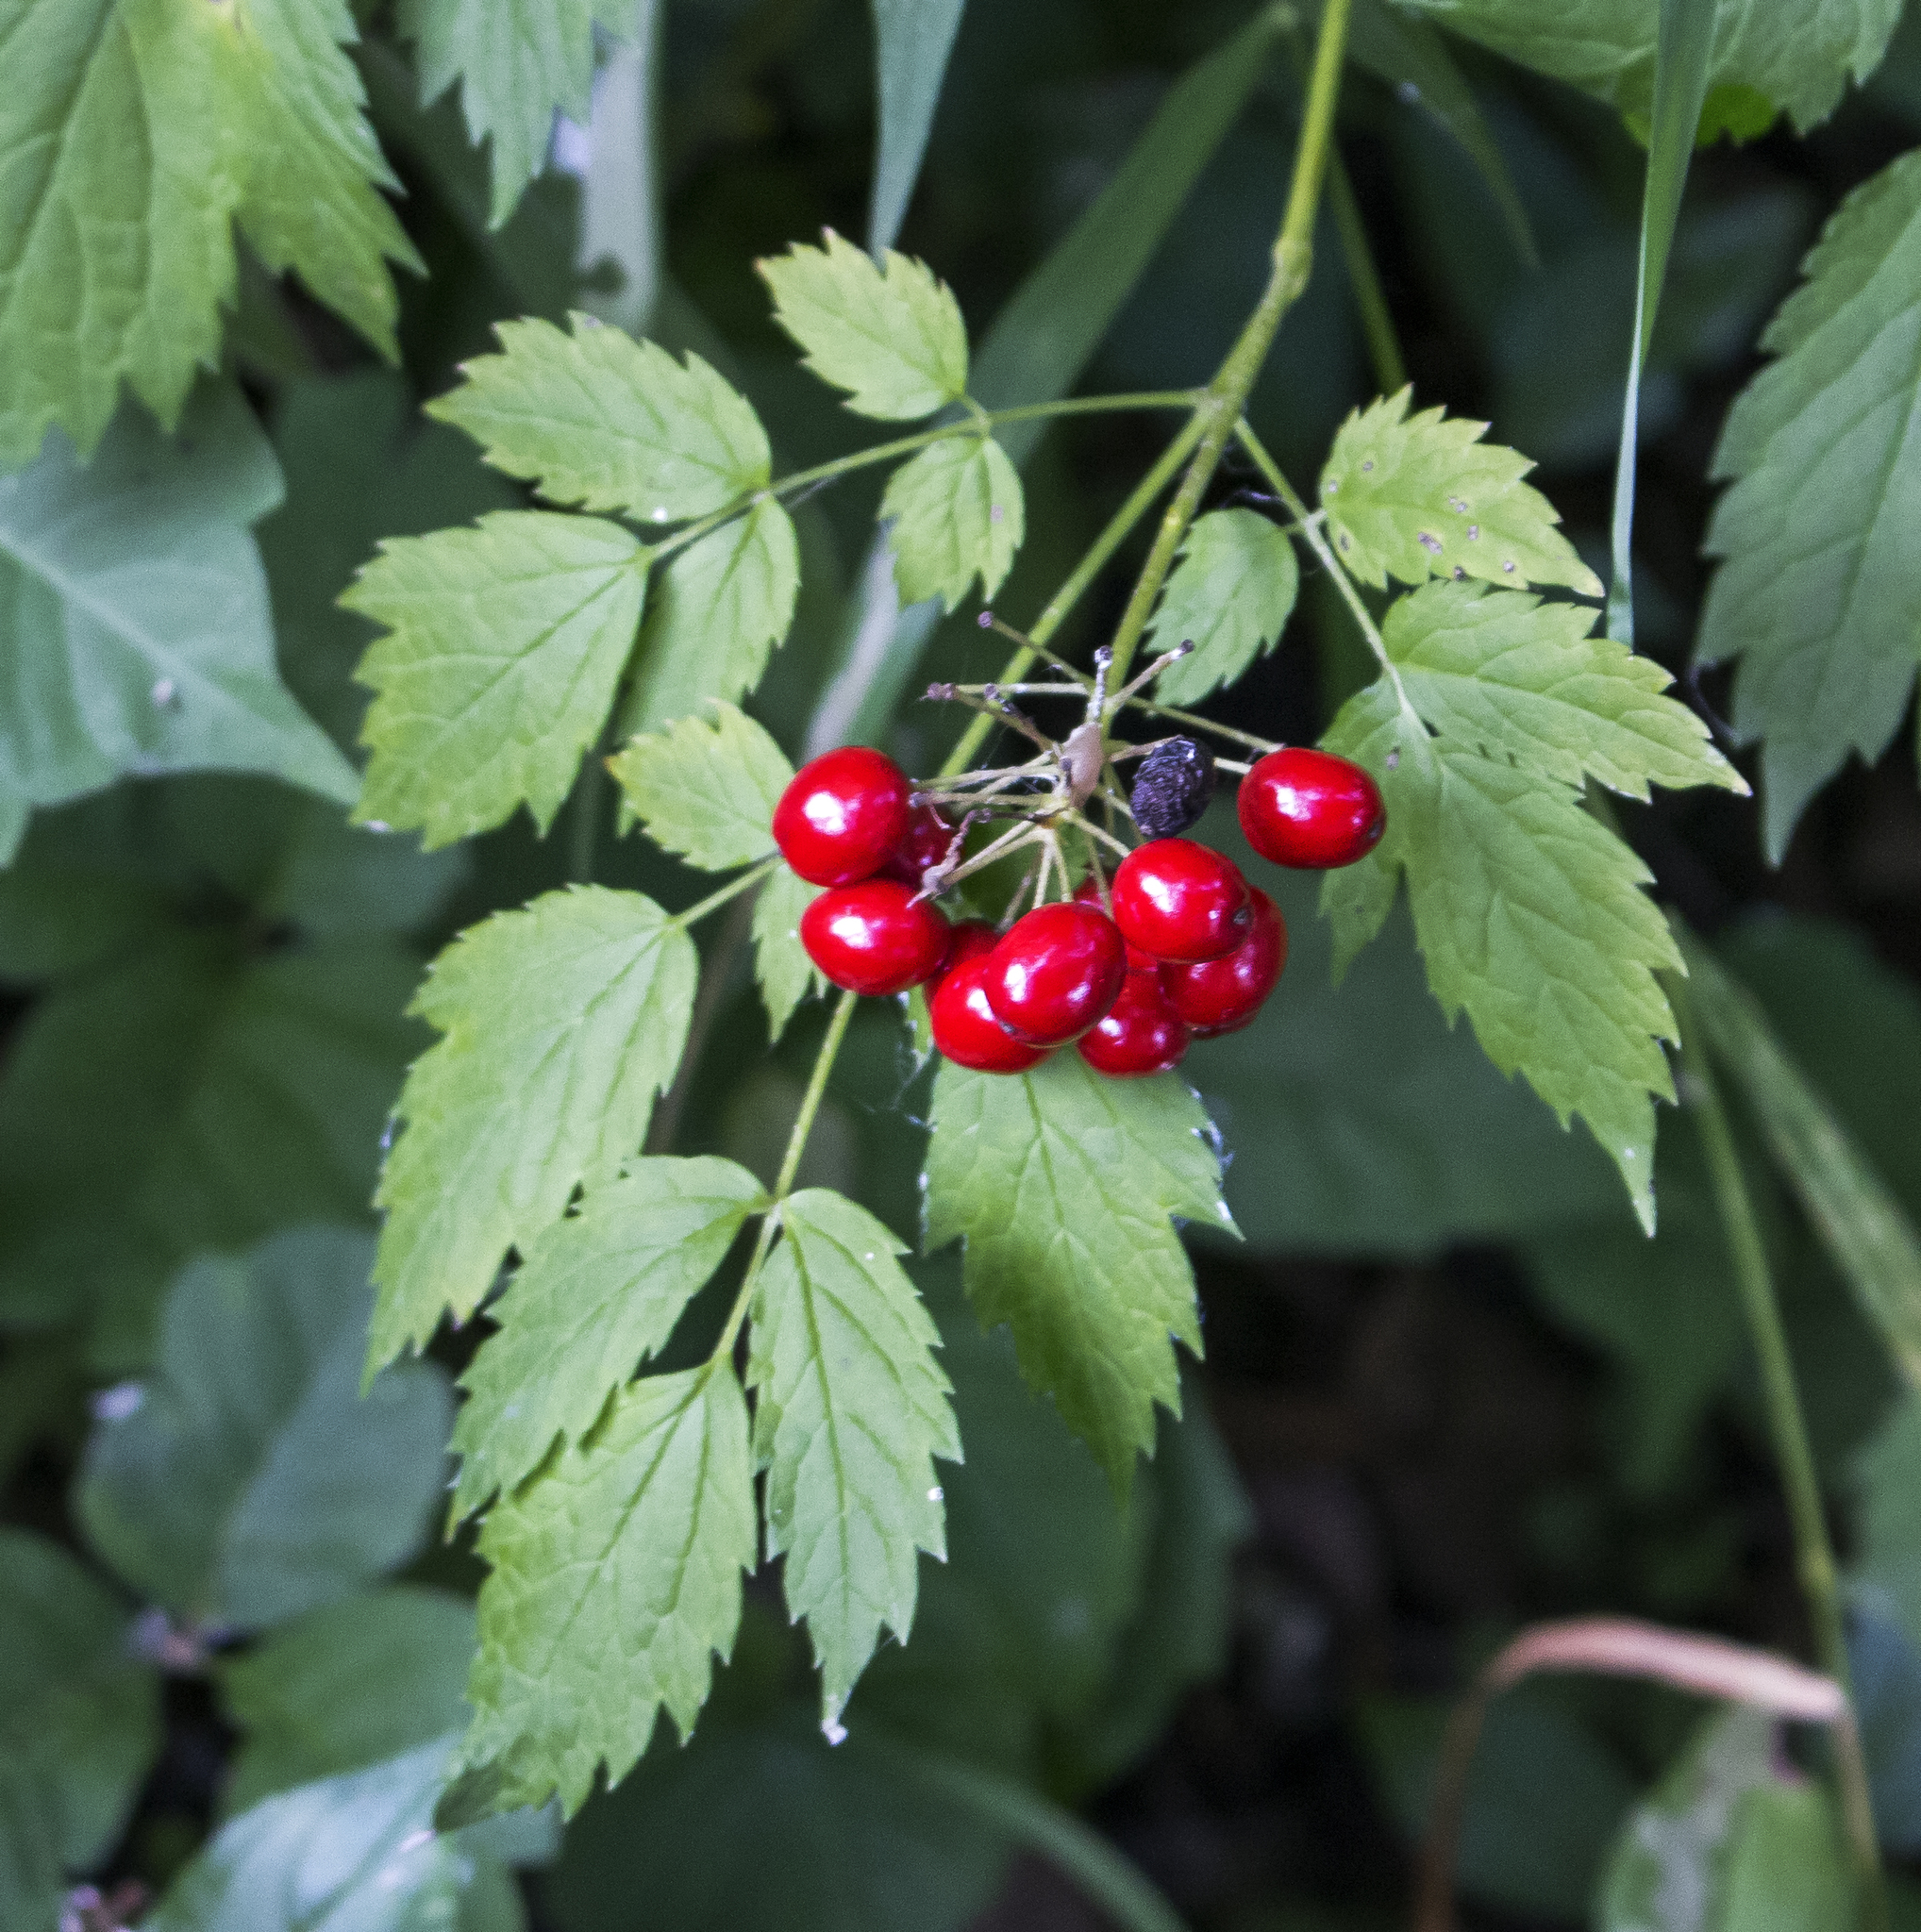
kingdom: Plantae
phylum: Tracheophyta
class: Magnoliopsida
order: Ranunculales
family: Ranunculaceae
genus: Actaea
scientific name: Actaea rubra
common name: Red baneberry
